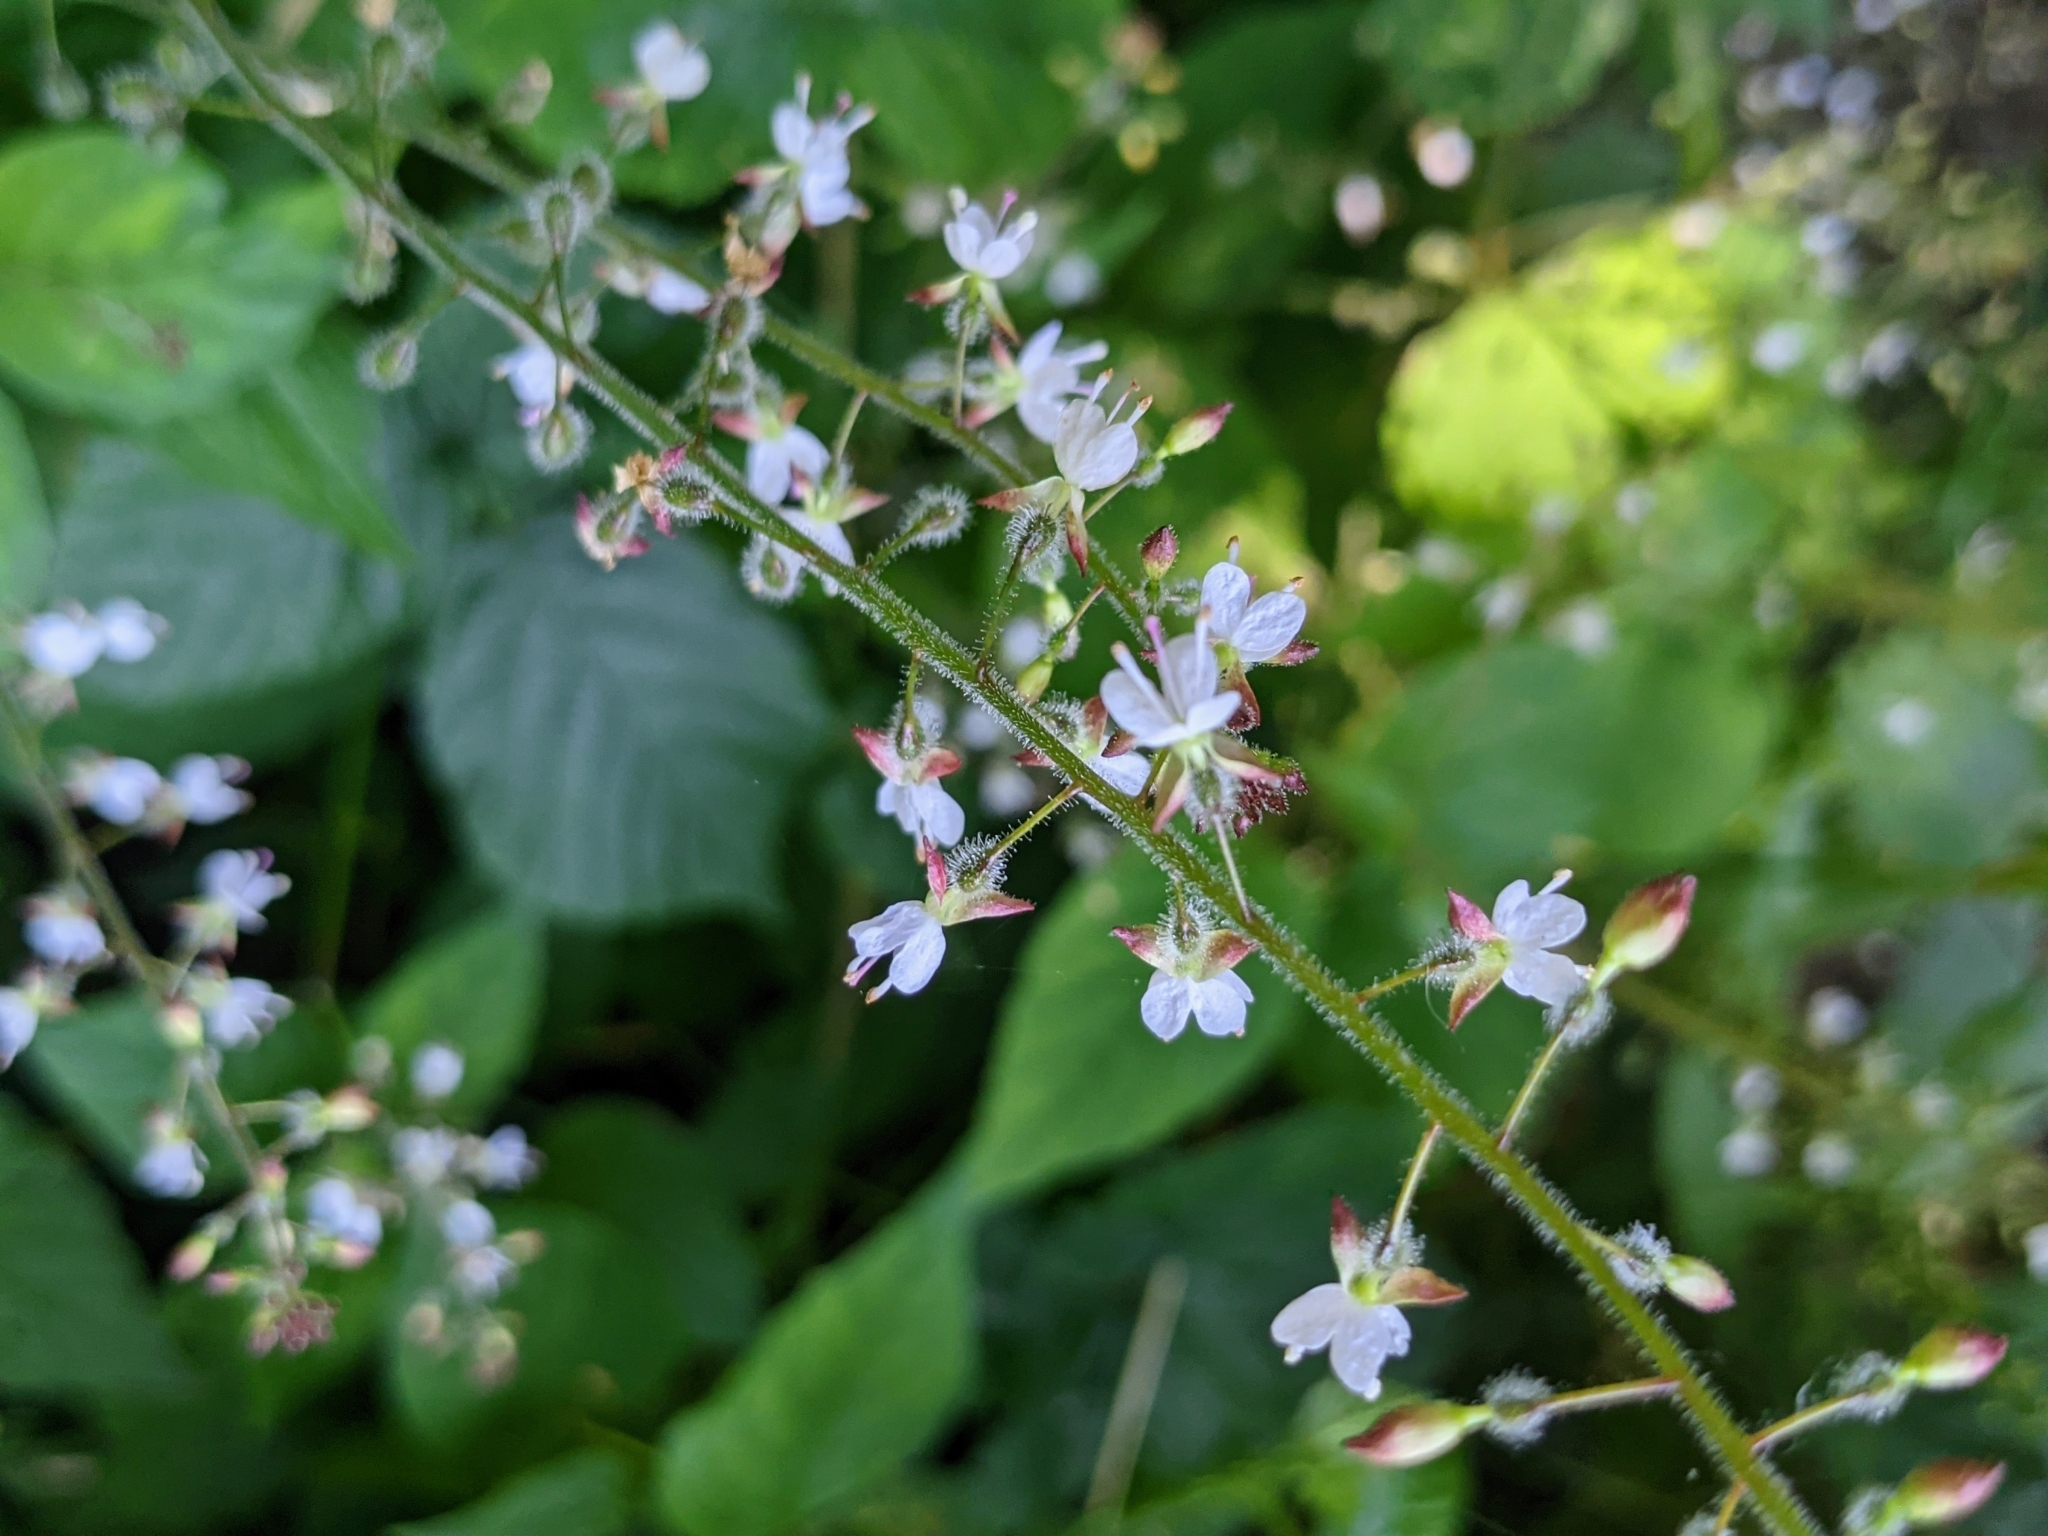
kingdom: Plantae
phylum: Tracheophyta
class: Magnoliopsida
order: Myrtales
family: Onagraceae
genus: Circaea
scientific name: Circaea lutetiana
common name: Enchanter's-nightshade
